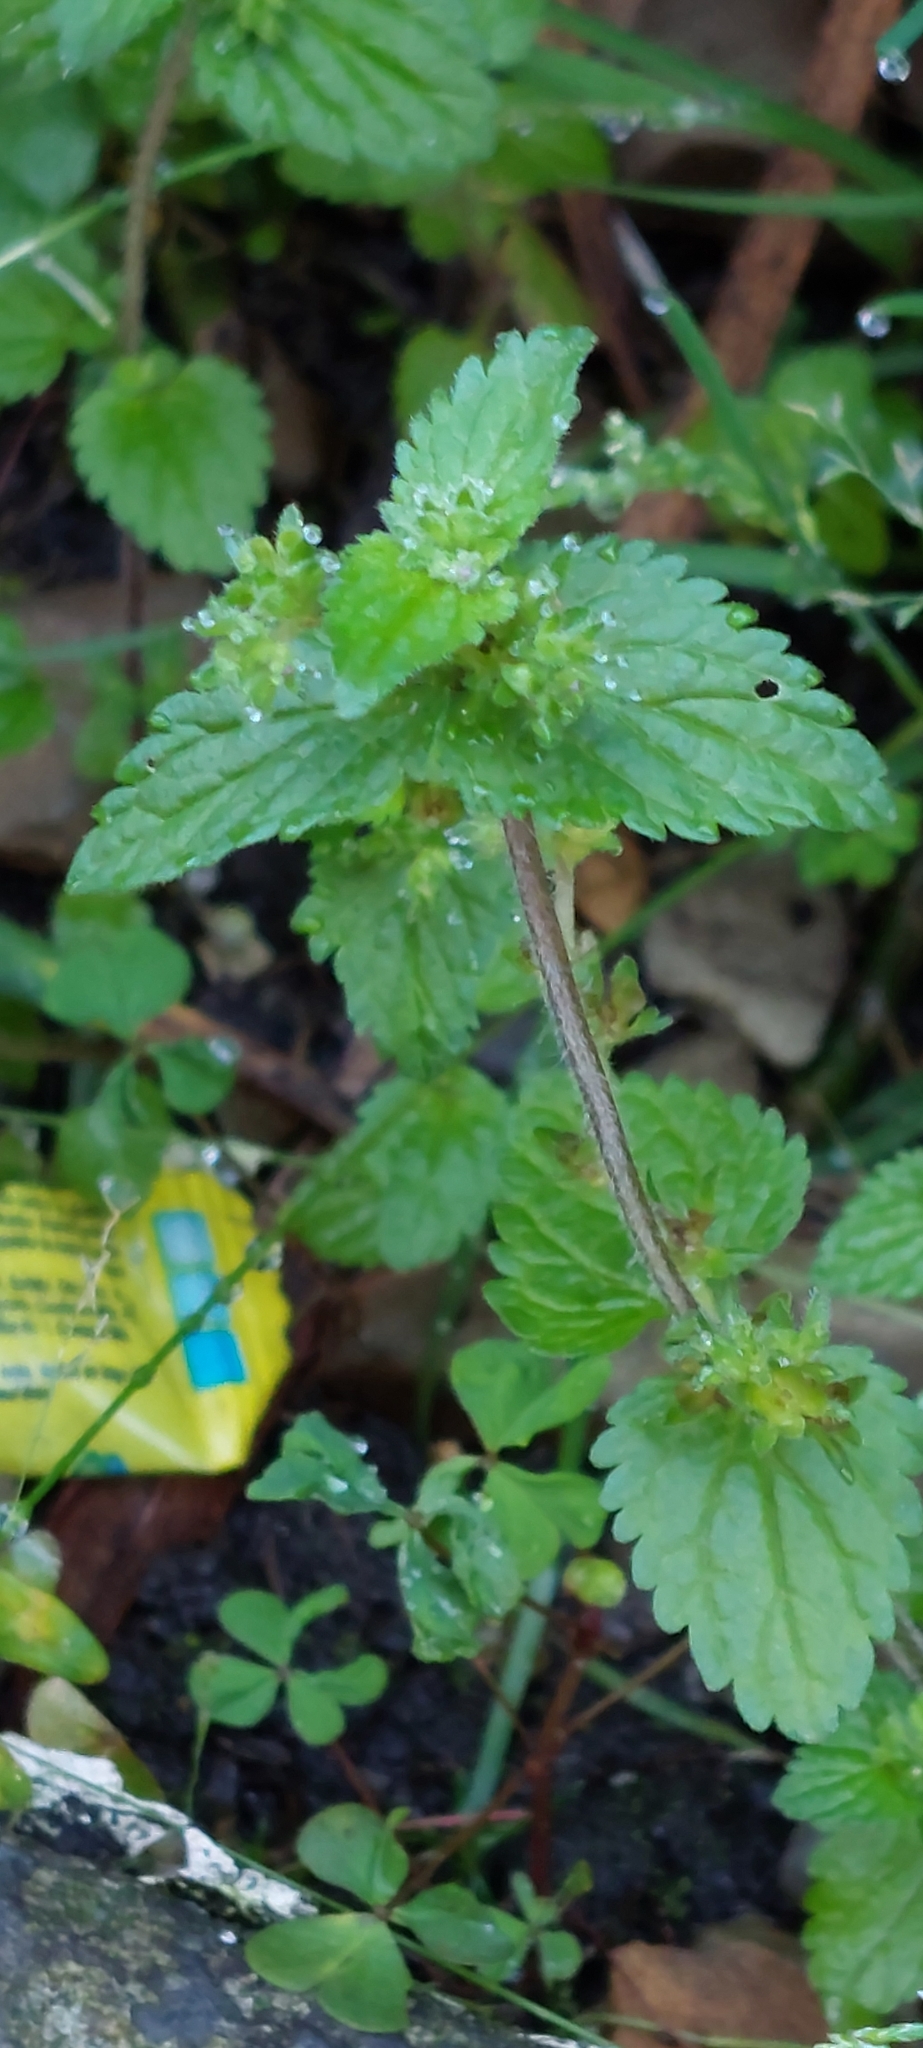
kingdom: Plantae
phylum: Tracheophyta
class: Magnoliopsida
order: Lamiales
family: Plantaginaceae
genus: Veronica
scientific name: Veronica javanica
